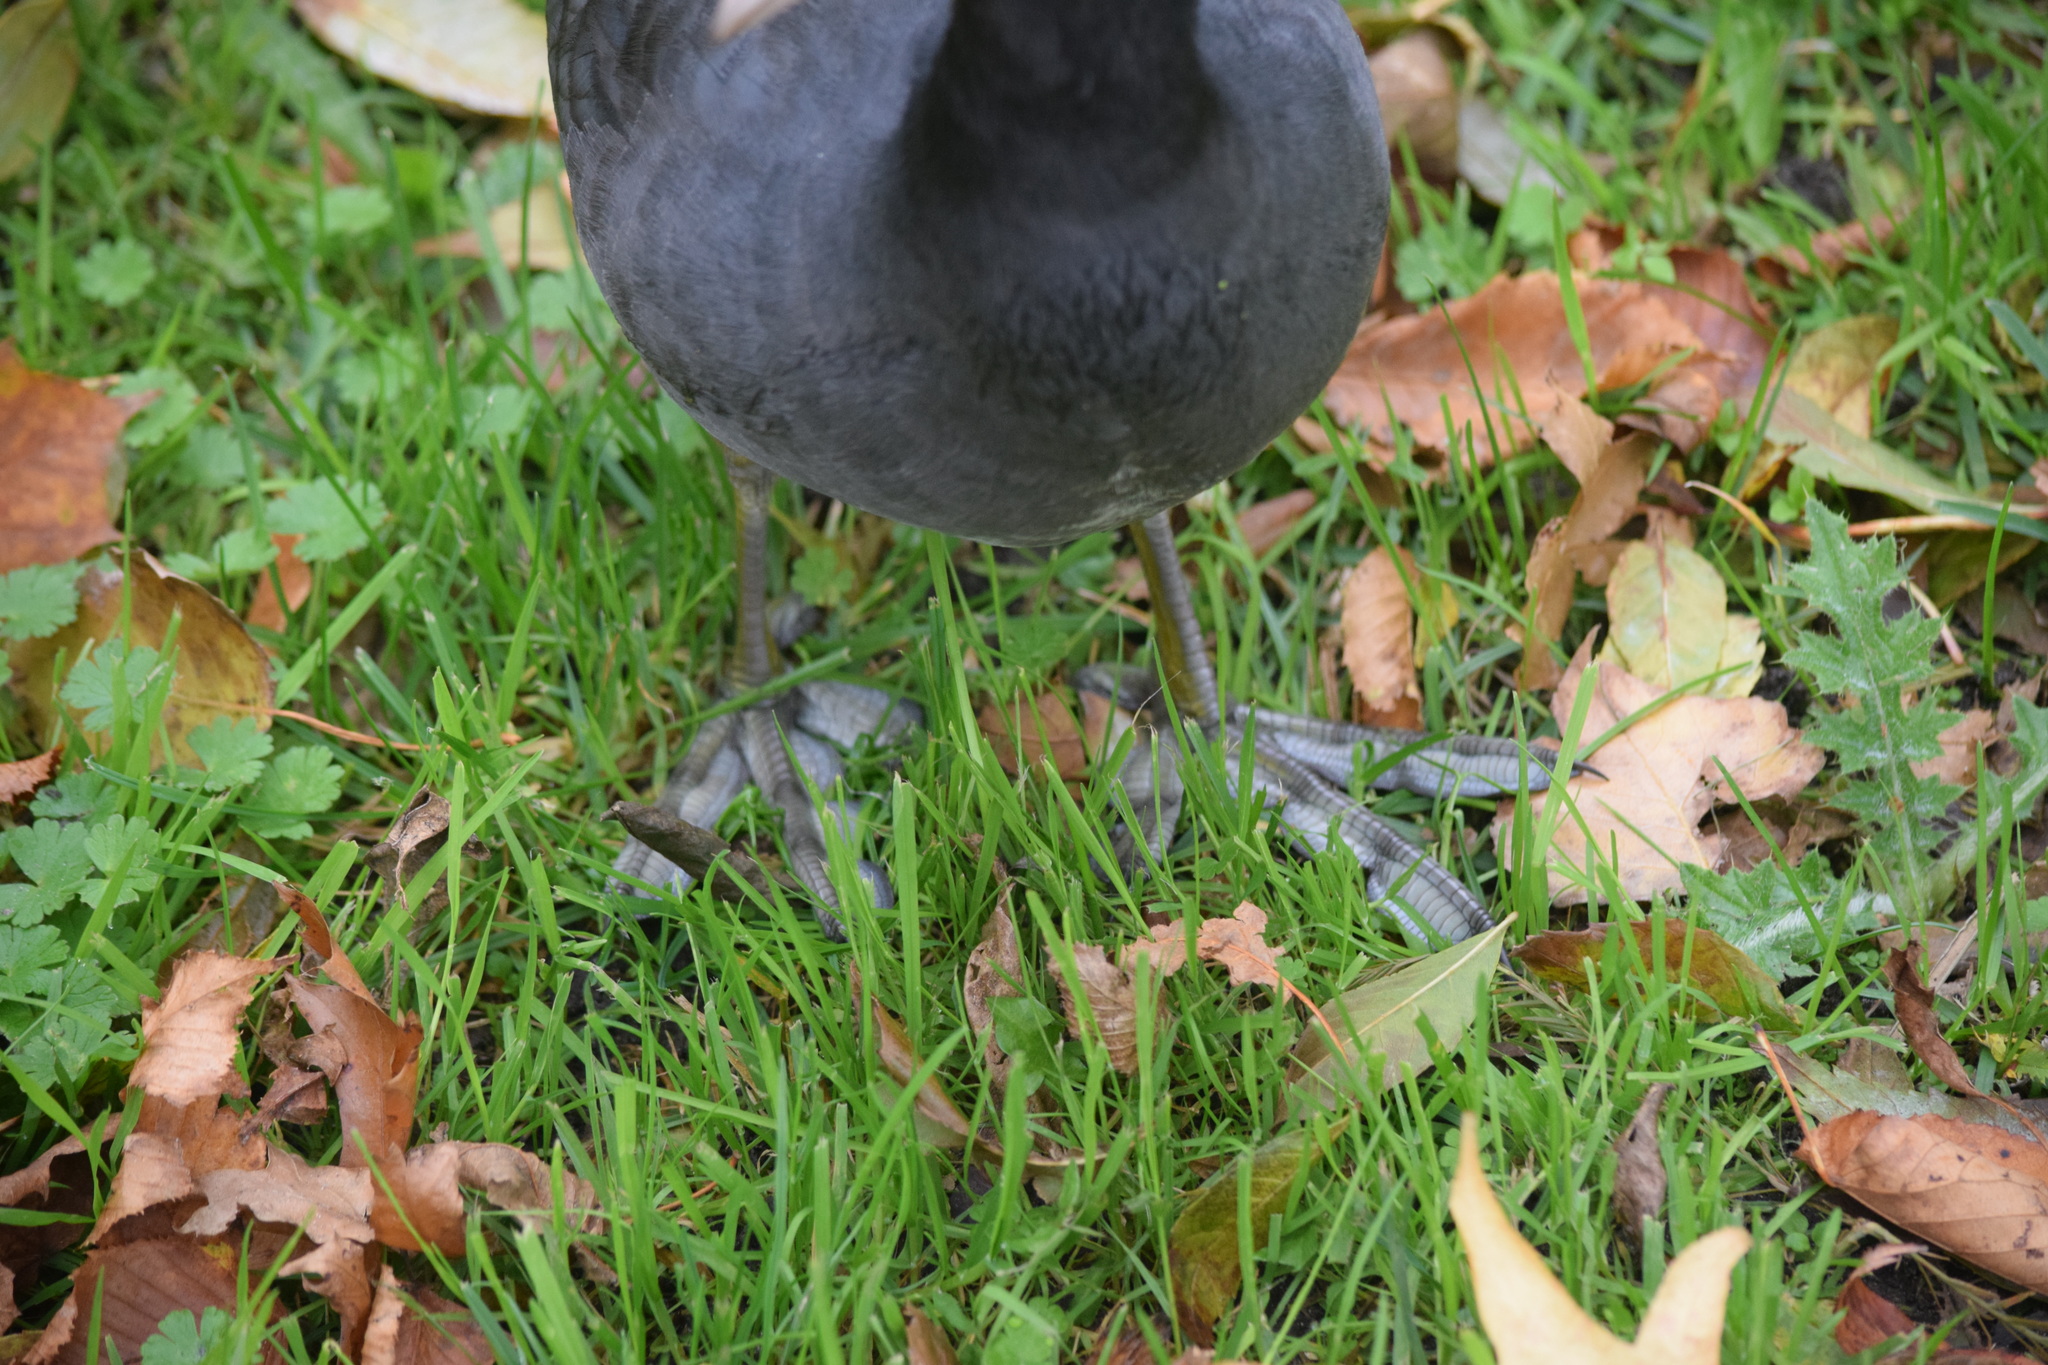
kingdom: Animalia
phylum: Chordata
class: Aves
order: Gruiformes
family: Rallidae
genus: Fulica
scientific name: Fulica atra
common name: Eurasian coot
